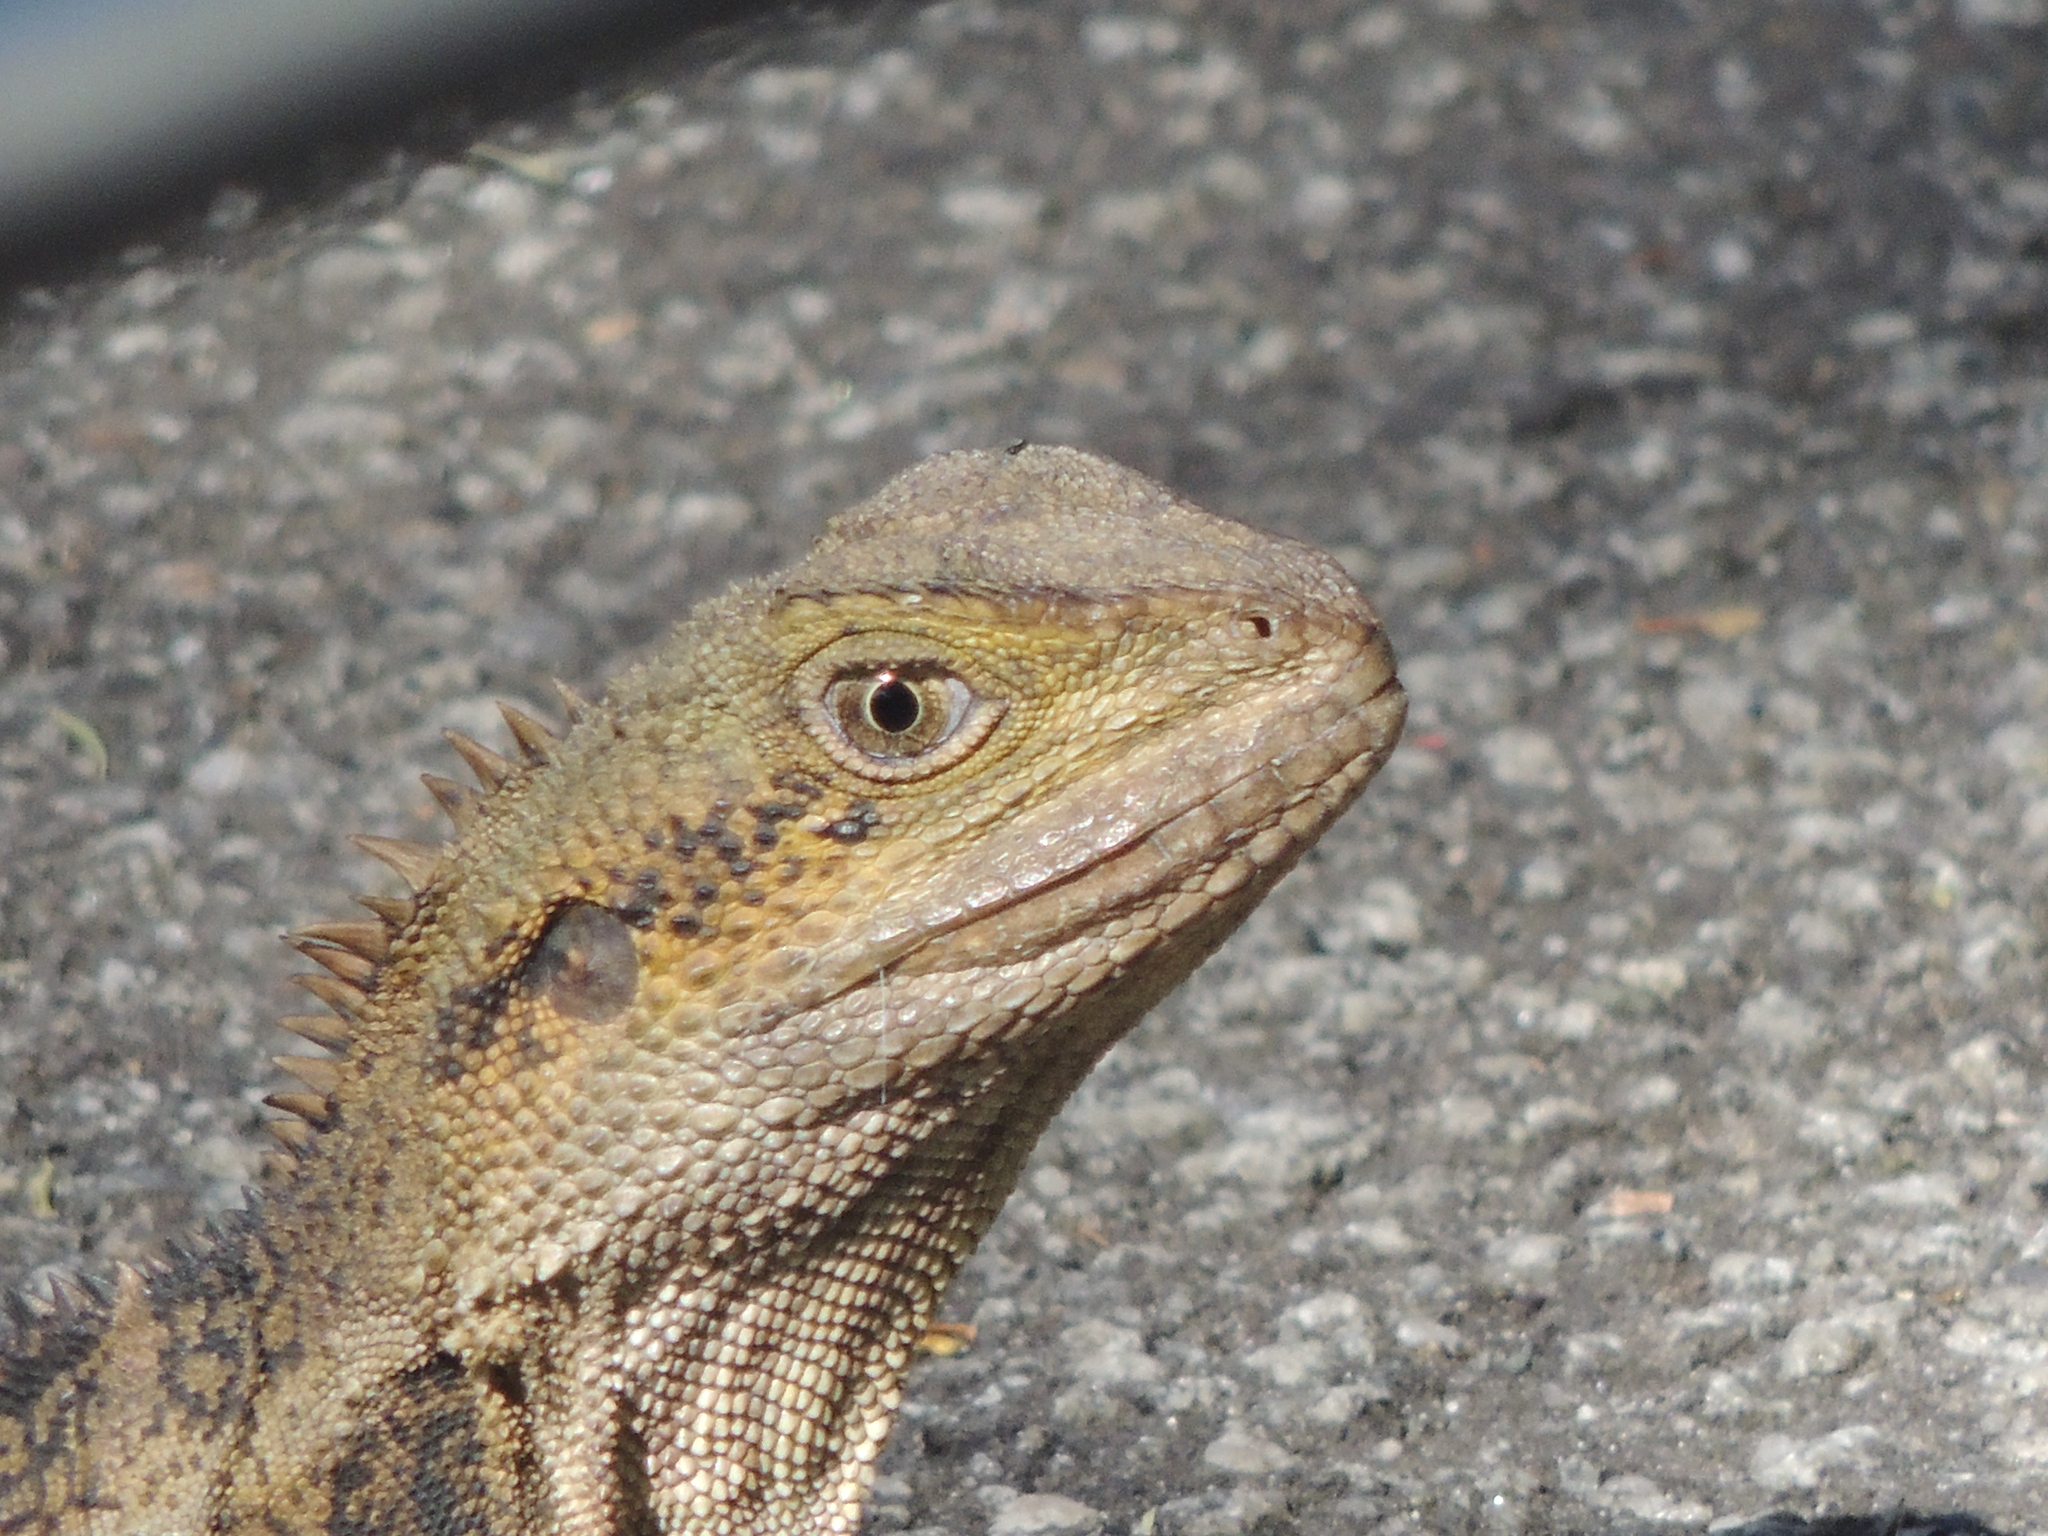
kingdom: Animalia
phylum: Chordata
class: Squamata
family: Agamidae
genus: Intellagama
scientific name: Intellagama lesueurii
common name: Eastern water dragon
